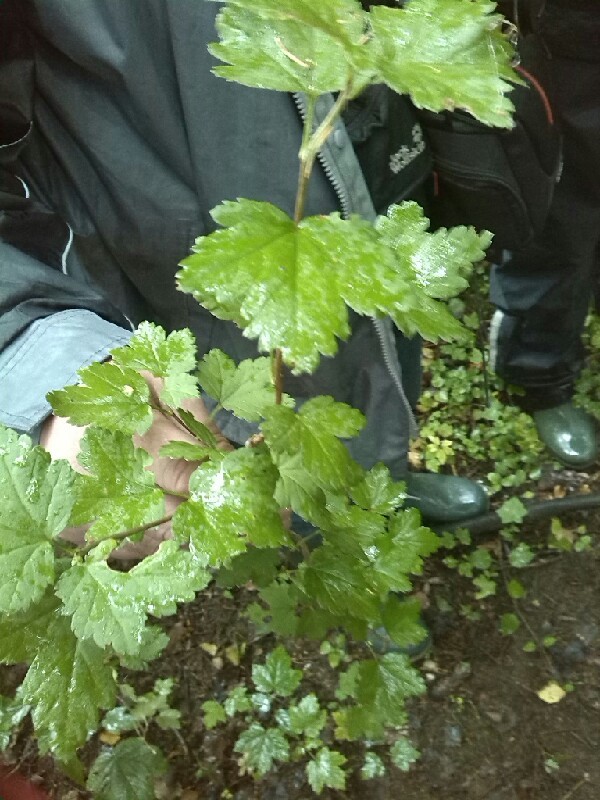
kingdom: Plantae
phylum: Tracheophyta
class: Magnoliopsida
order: Saxifragales
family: Grossulariaceae
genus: Ribes
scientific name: Ribes alpinum
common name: Alpine currant
